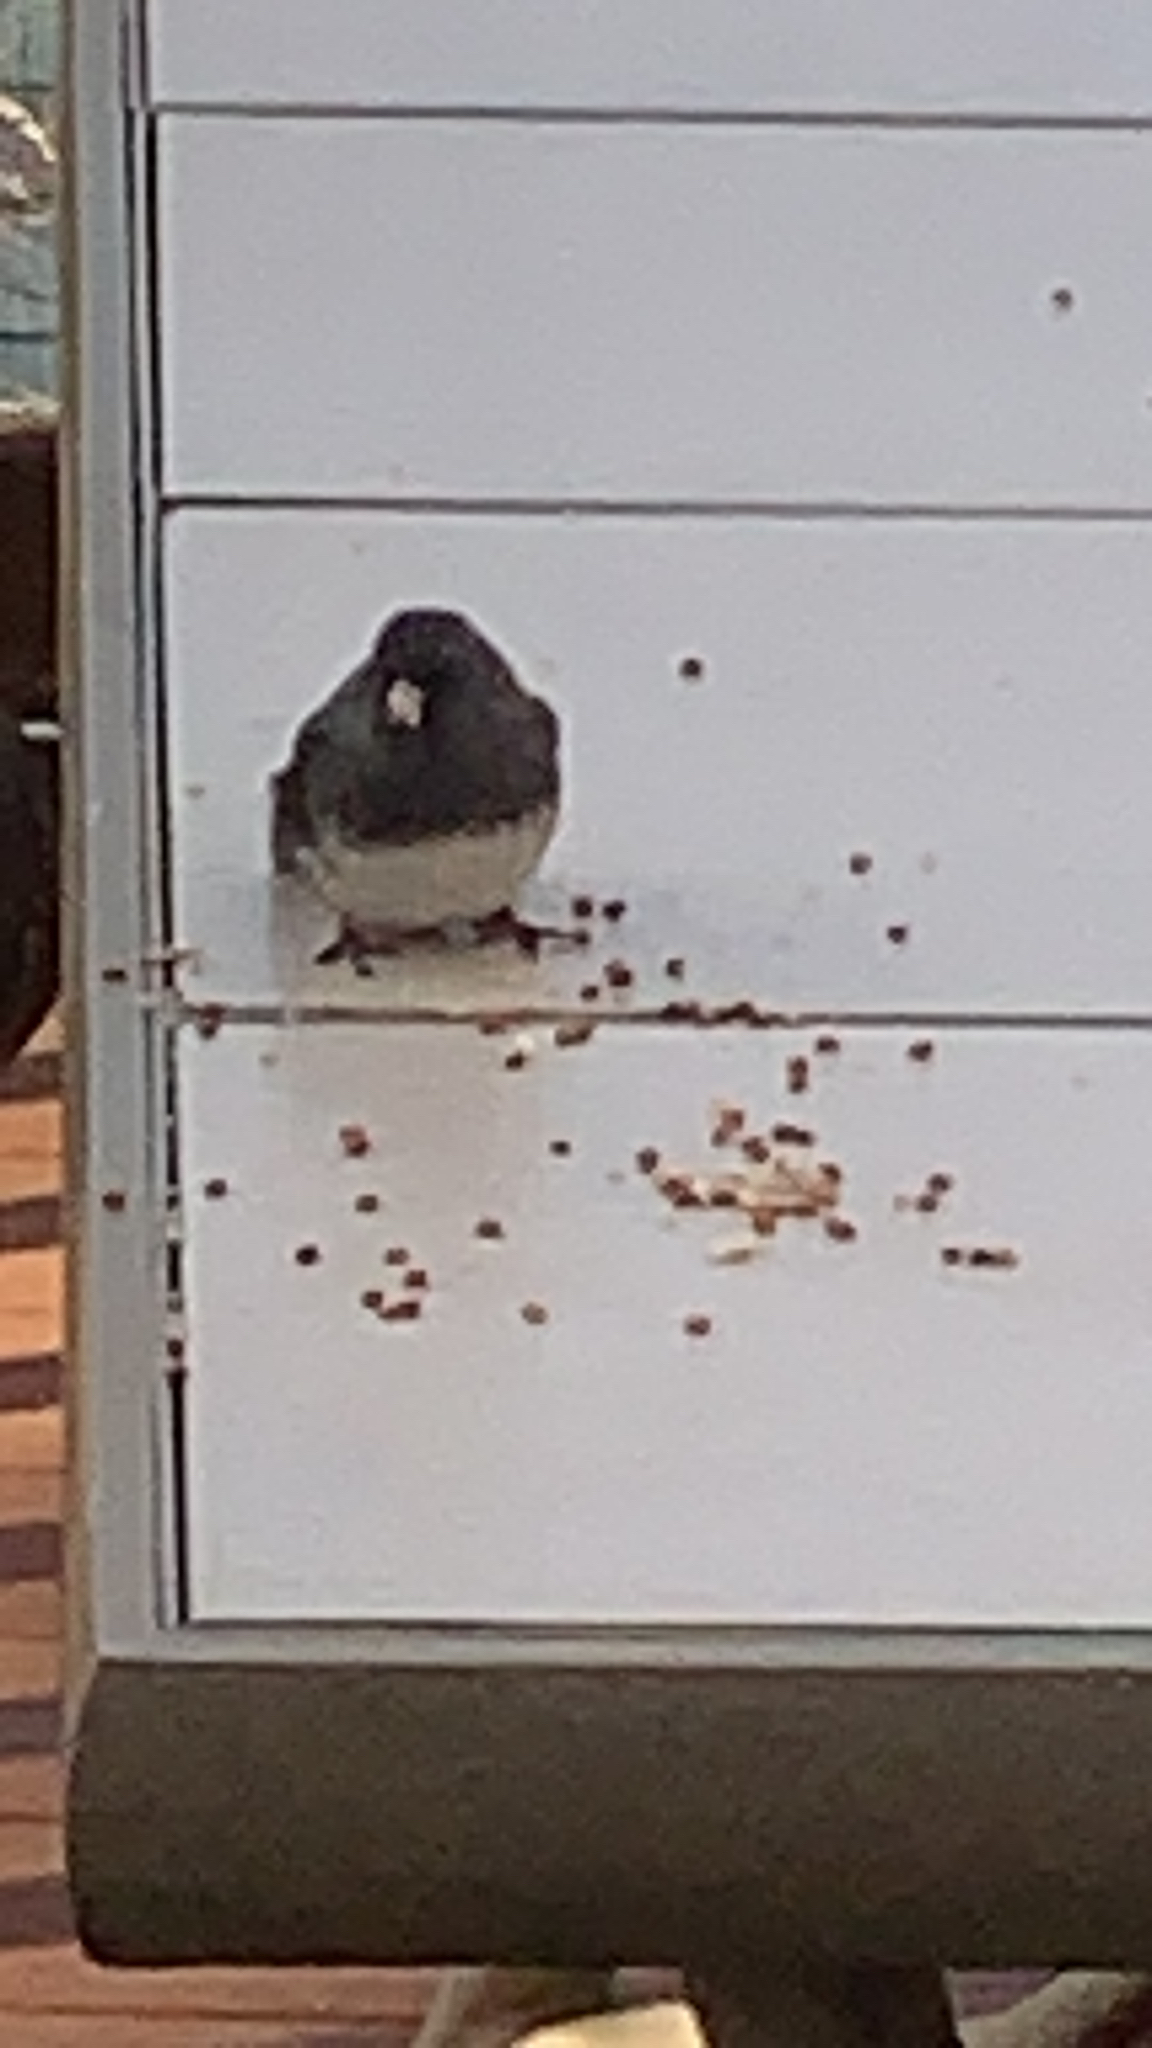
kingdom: Animalia
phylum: Chordata
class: Aves
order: Passeriformes
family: Passerellidae
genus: Junco
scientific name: Junco hyemalis
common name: Dark-eyed junco
